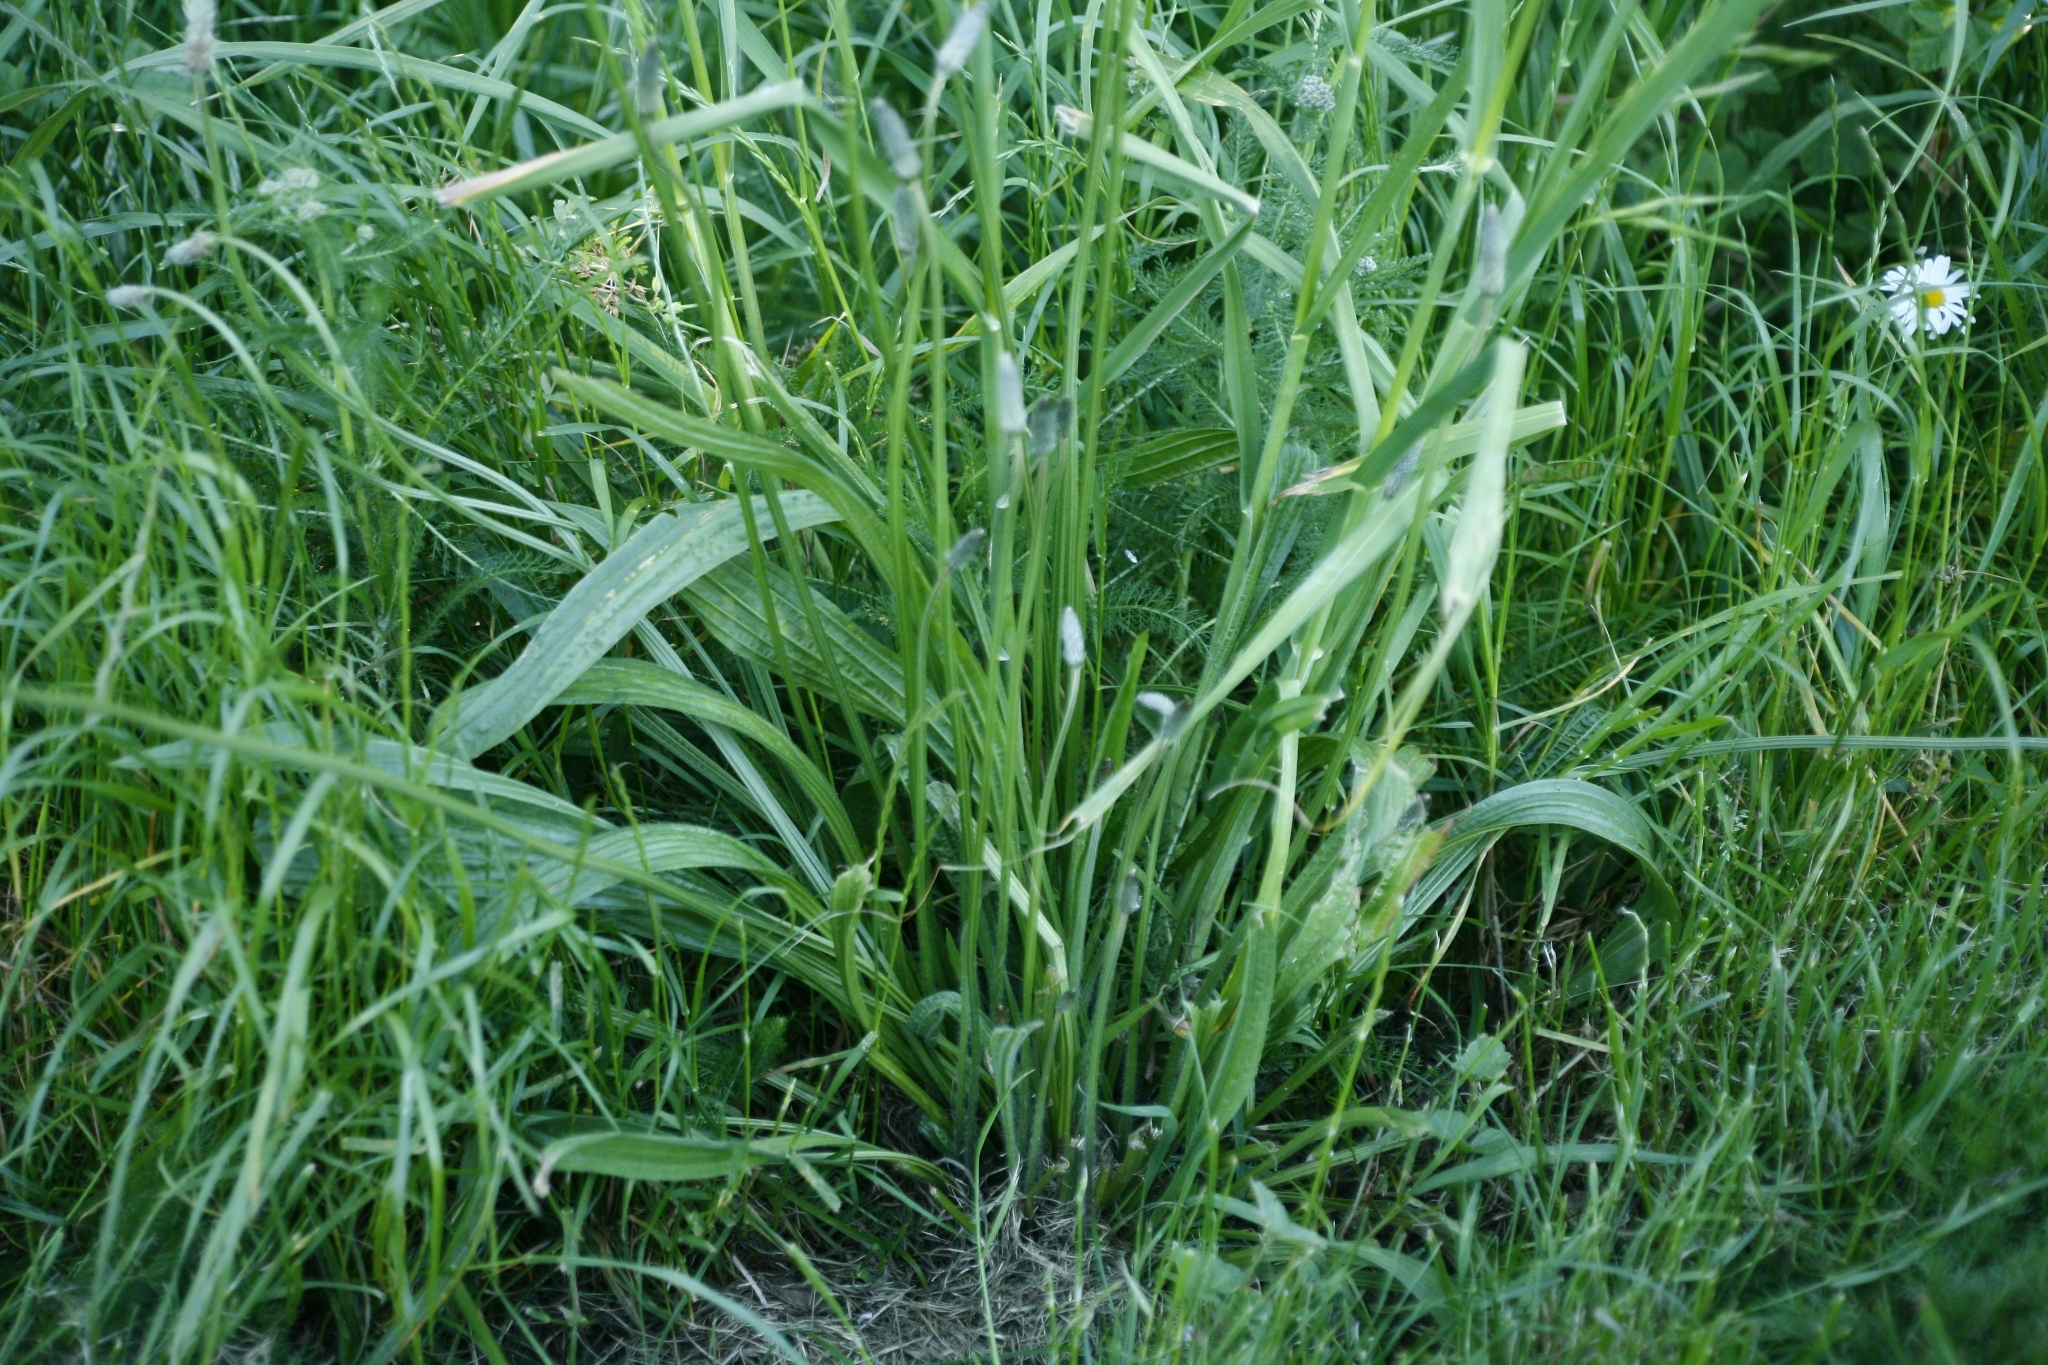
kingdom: Plantae
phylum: Tracheophyta
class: Magnoliopsida
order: Lamiales
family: Plantaginaceae
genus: Plantago
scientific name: Plantago lanceolata
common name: Ribwort plantain
